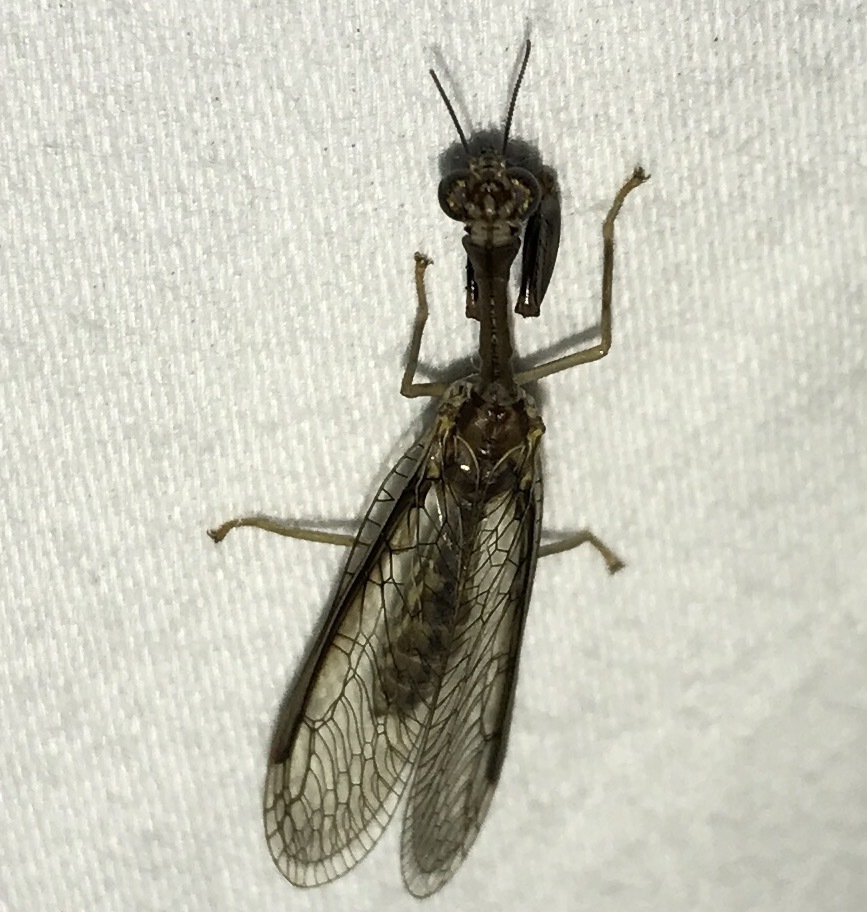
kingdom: Animalia
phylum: Arthropoda
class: Insecta
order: Neuroptera
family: Mantispidae
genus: Dicromantispa
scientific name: Dicromantispa sayi
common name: Say's mantidfly
